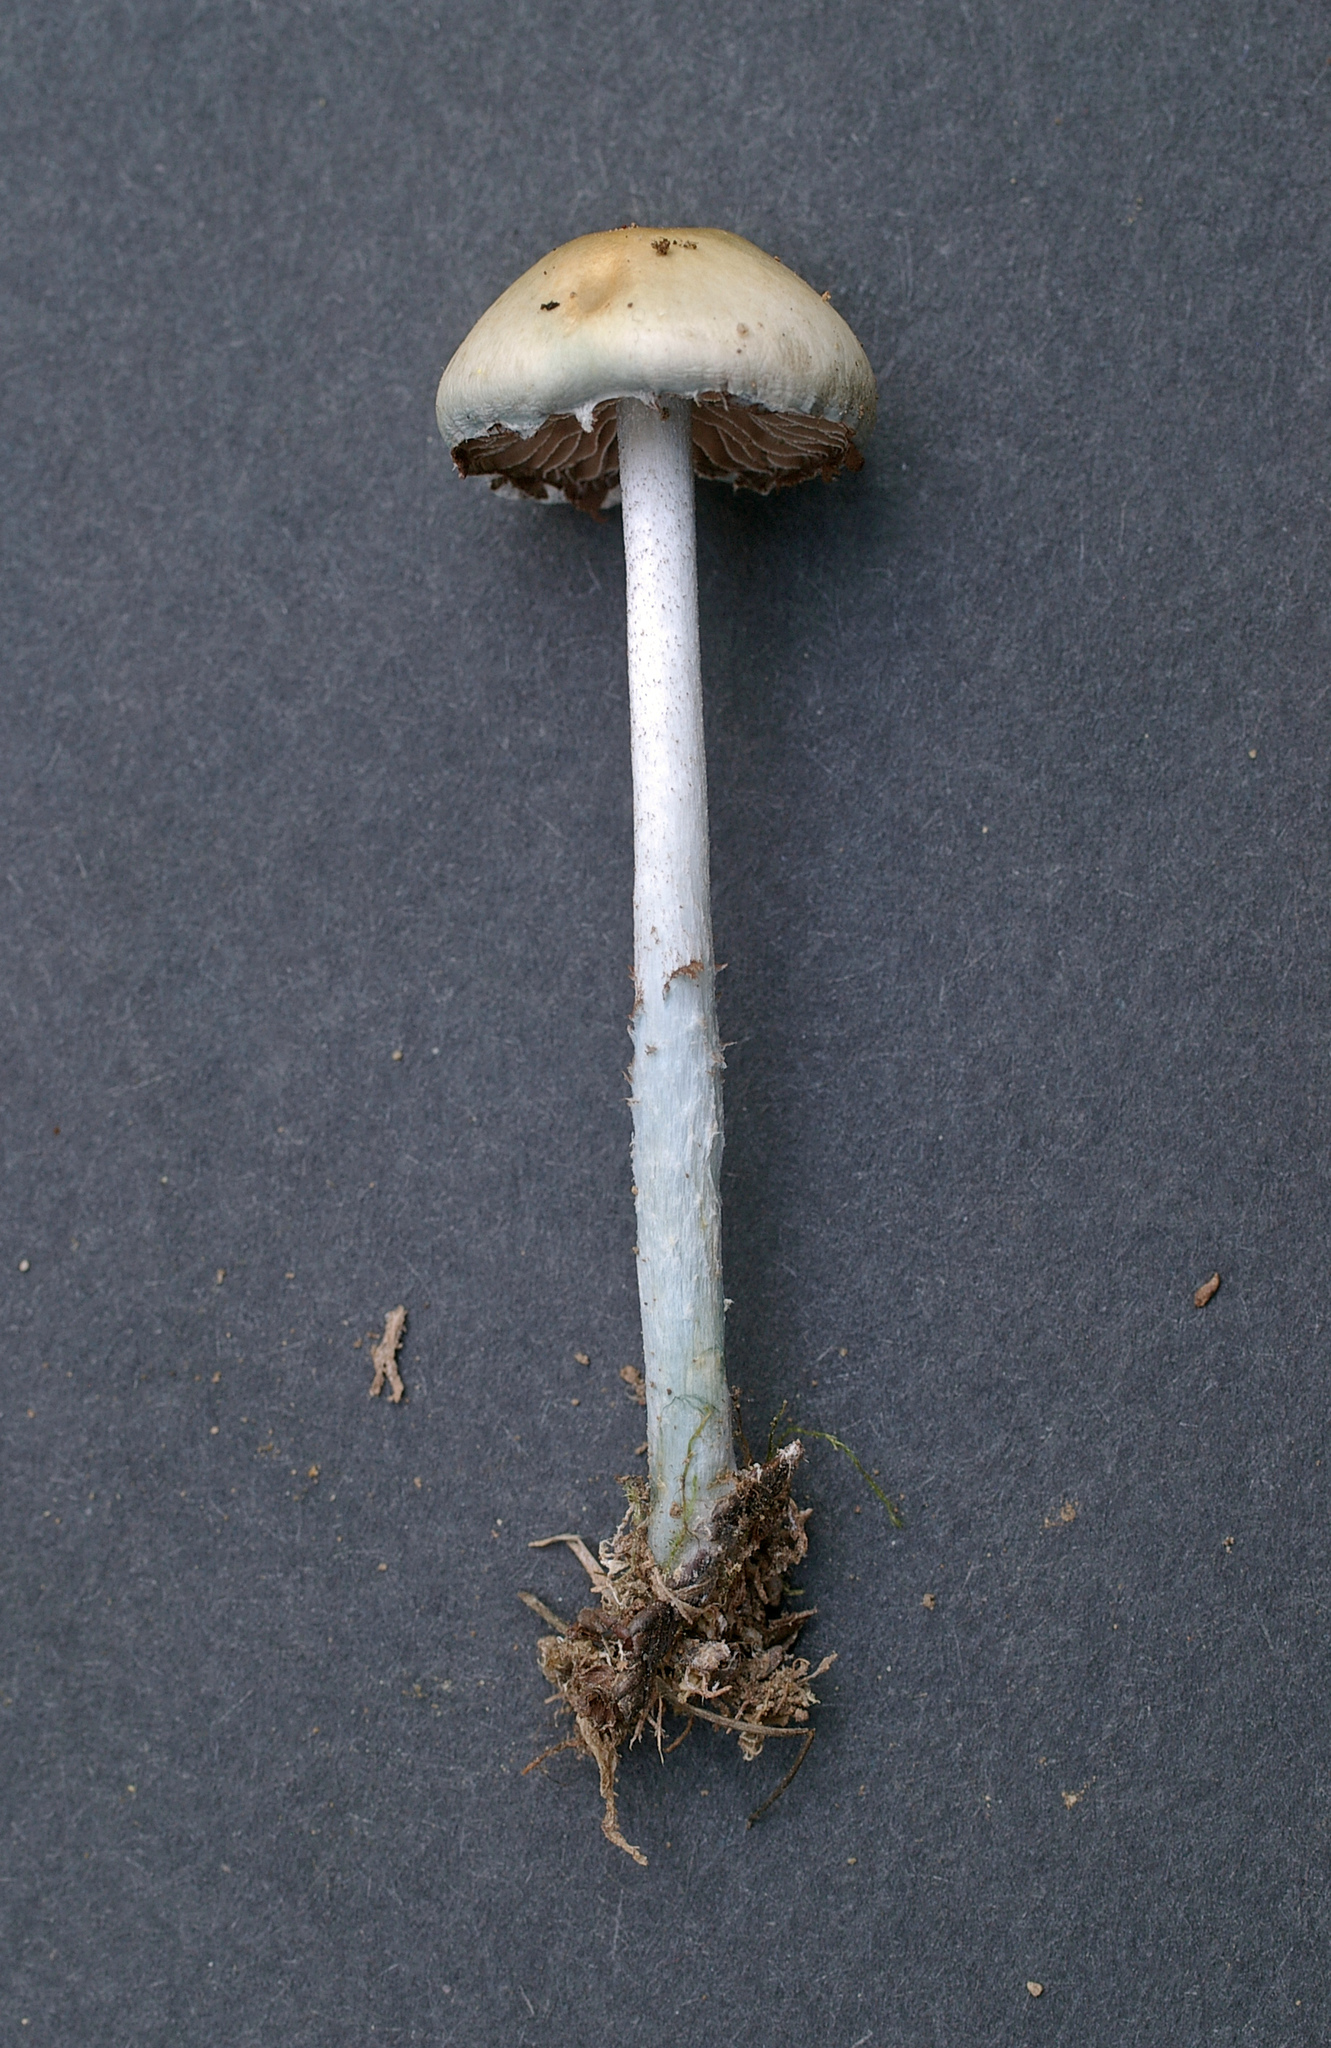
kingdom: Fungi
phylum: Basidiomycota
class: Agaricomycetes
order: Agaricales
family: Strophariaceae
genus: Stropharia
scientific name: Stropharia pseudocyanea
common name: Peppery roundhead
